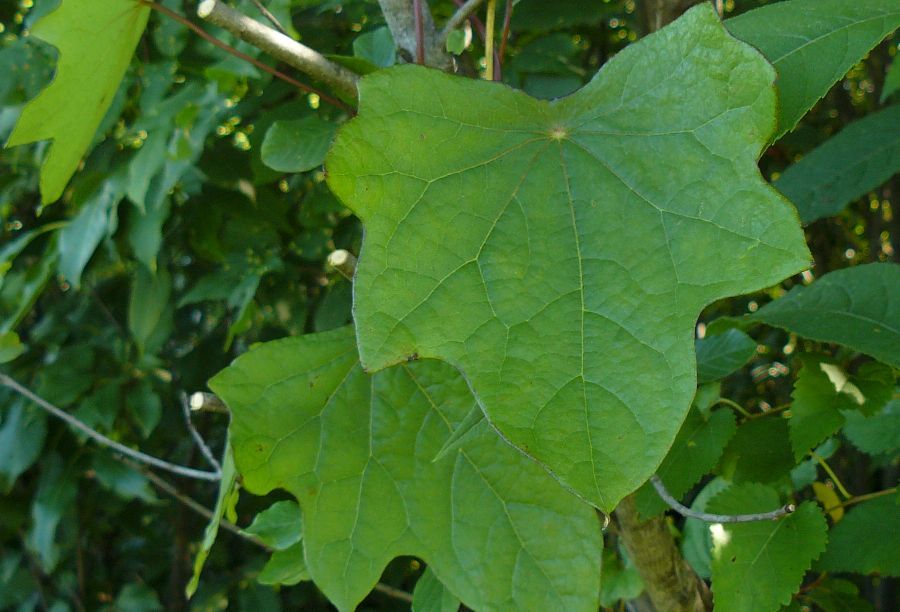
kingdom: Plantae
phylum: Tracheophyta
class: Magnoliopsida
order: Ranunculales
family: Menispermaceae
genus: Menispermum
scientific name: Menispermum canadense
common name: Moonseed
